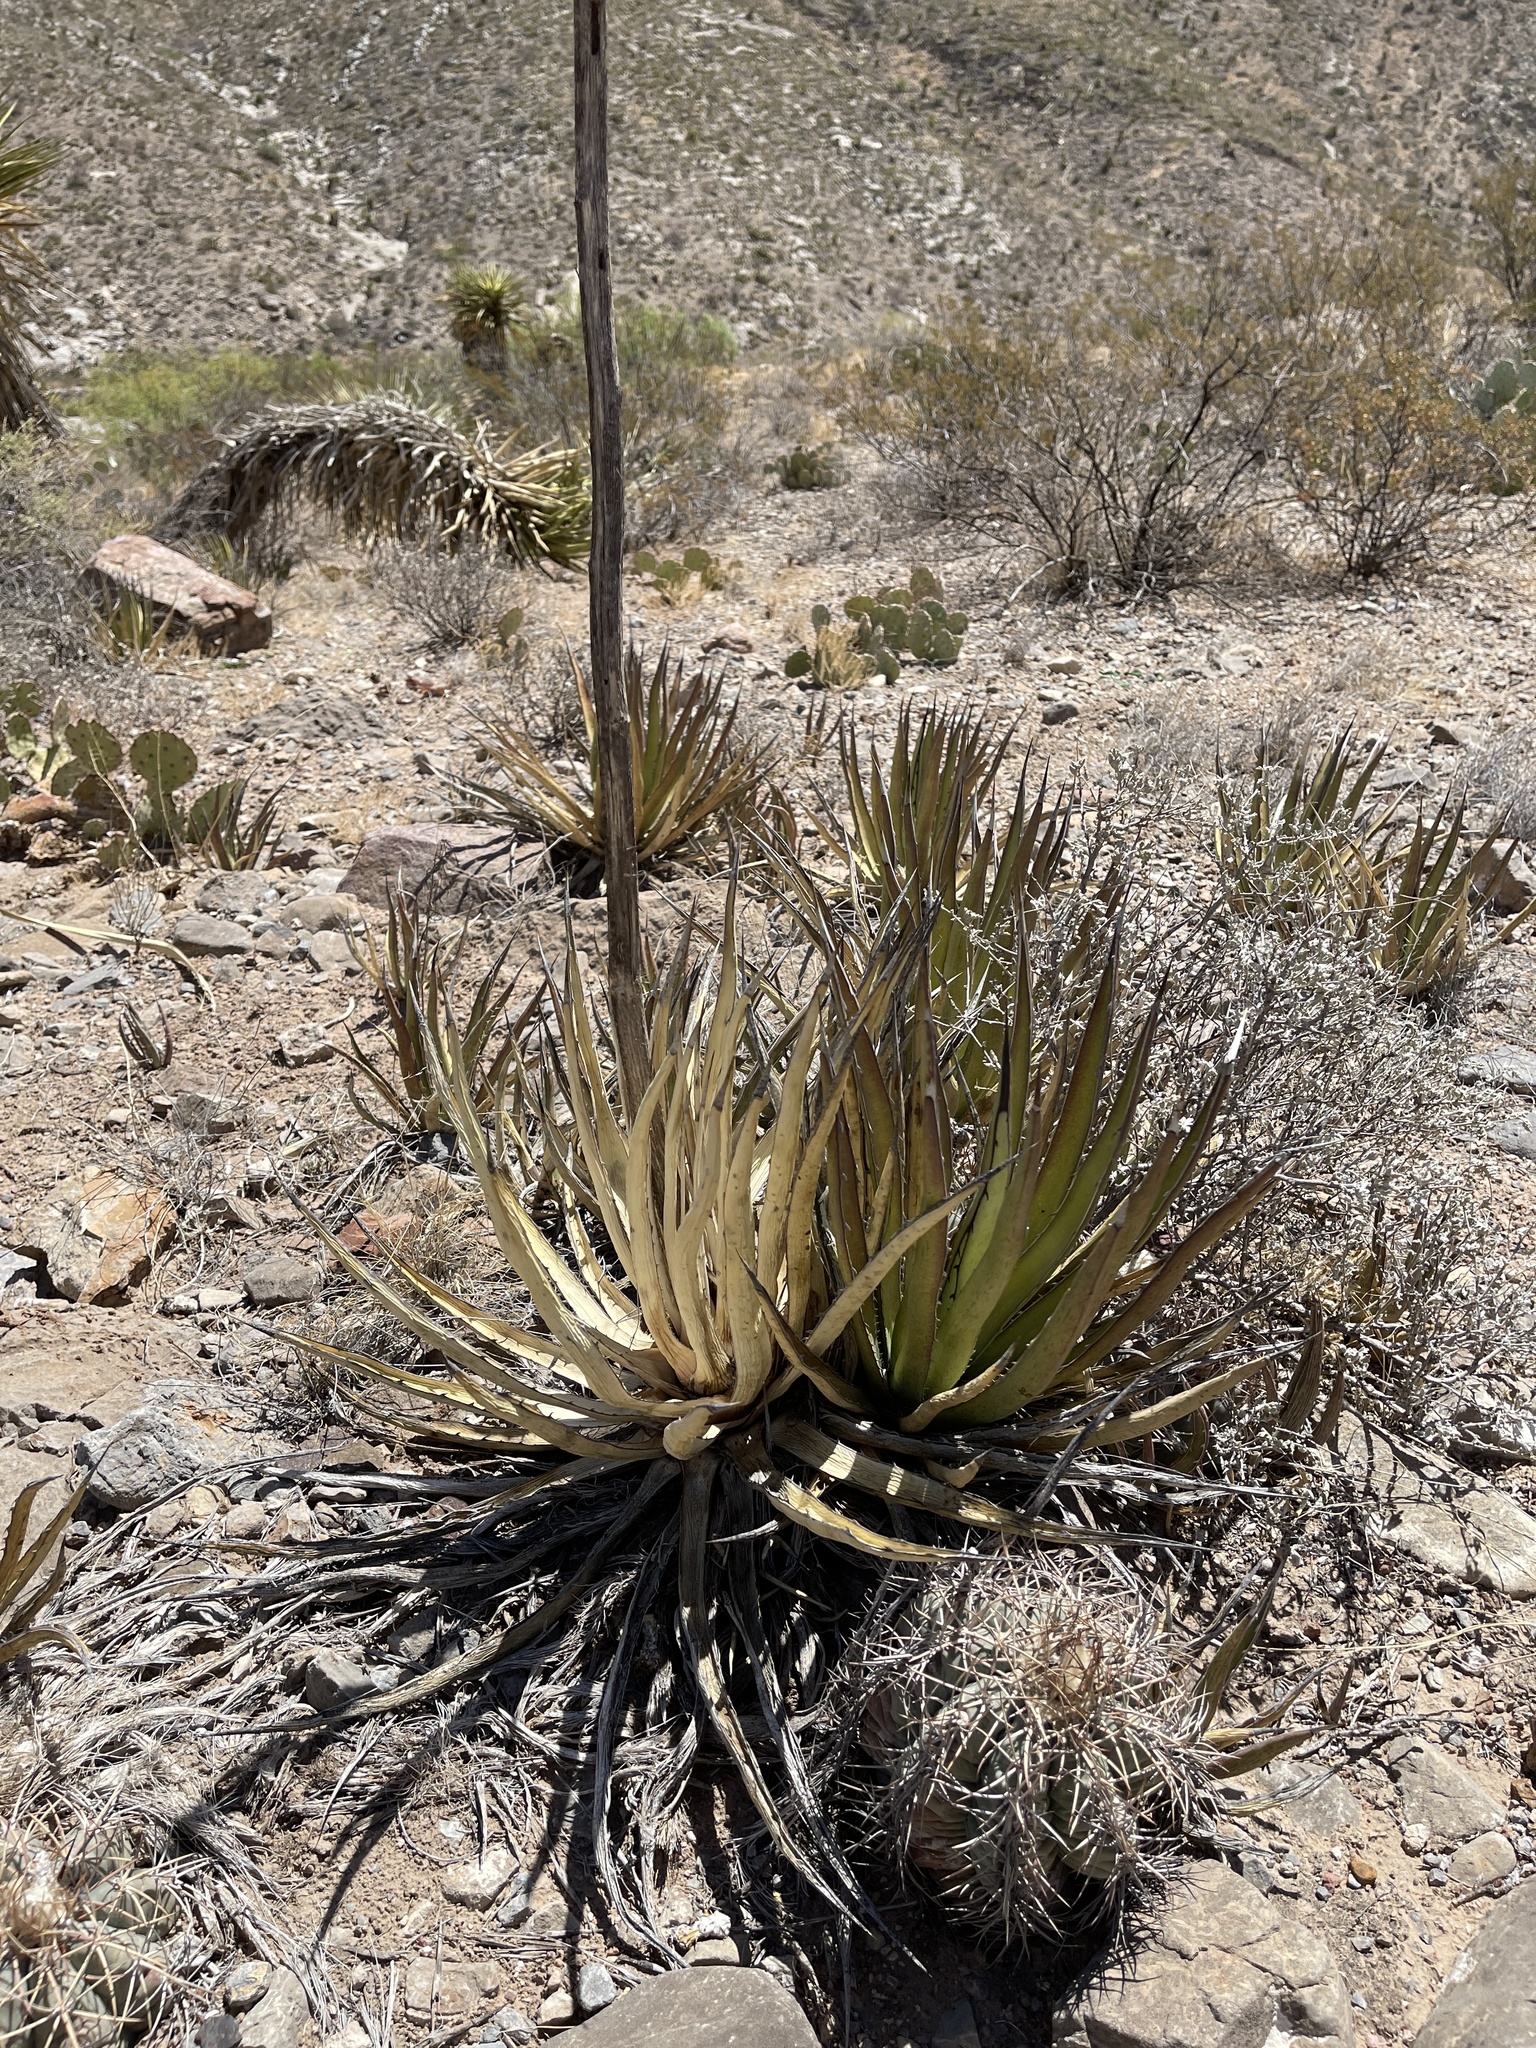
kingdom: Plantae
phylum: Tracheophyta
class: Liliopsida
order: Asparagales
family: Asparagaceae
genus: Agave
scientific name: Agave lechuguilla
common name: Lecheguilla agave
